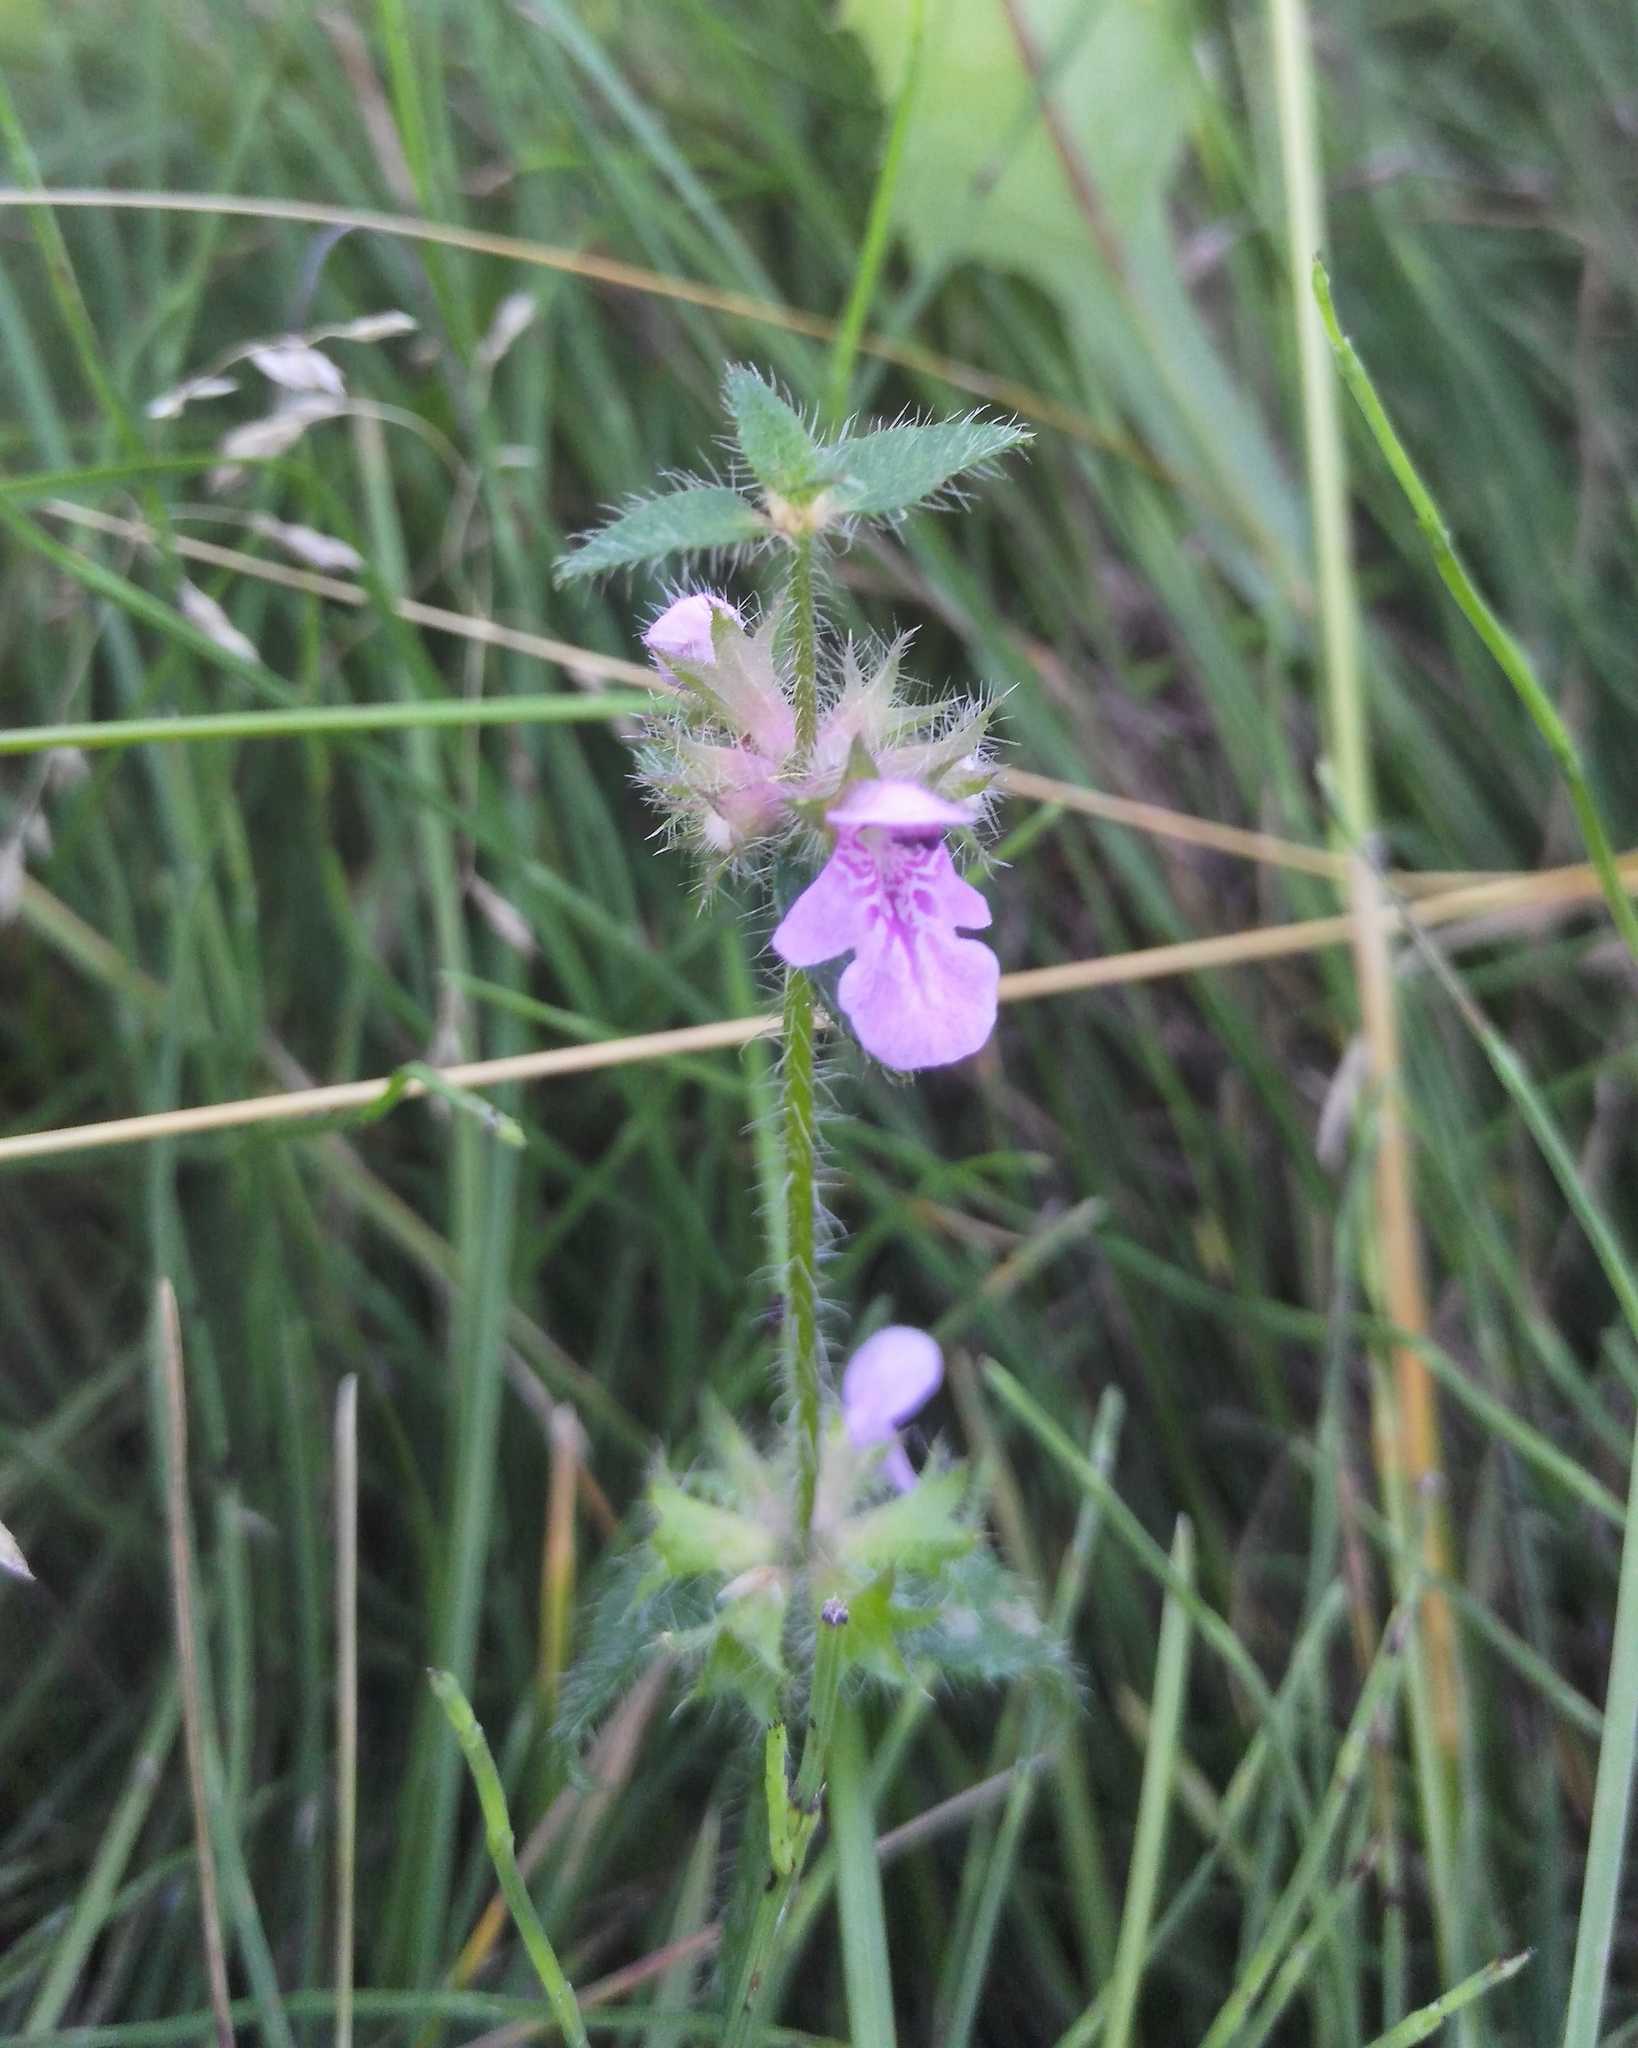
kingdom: Plantae
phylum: Tracheophyta
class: Magnoliopsida
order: Lamiales
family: Lamiaceae
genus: Stachys
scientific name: Stachys aspera
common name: Hyssopleaf hedgenettle
